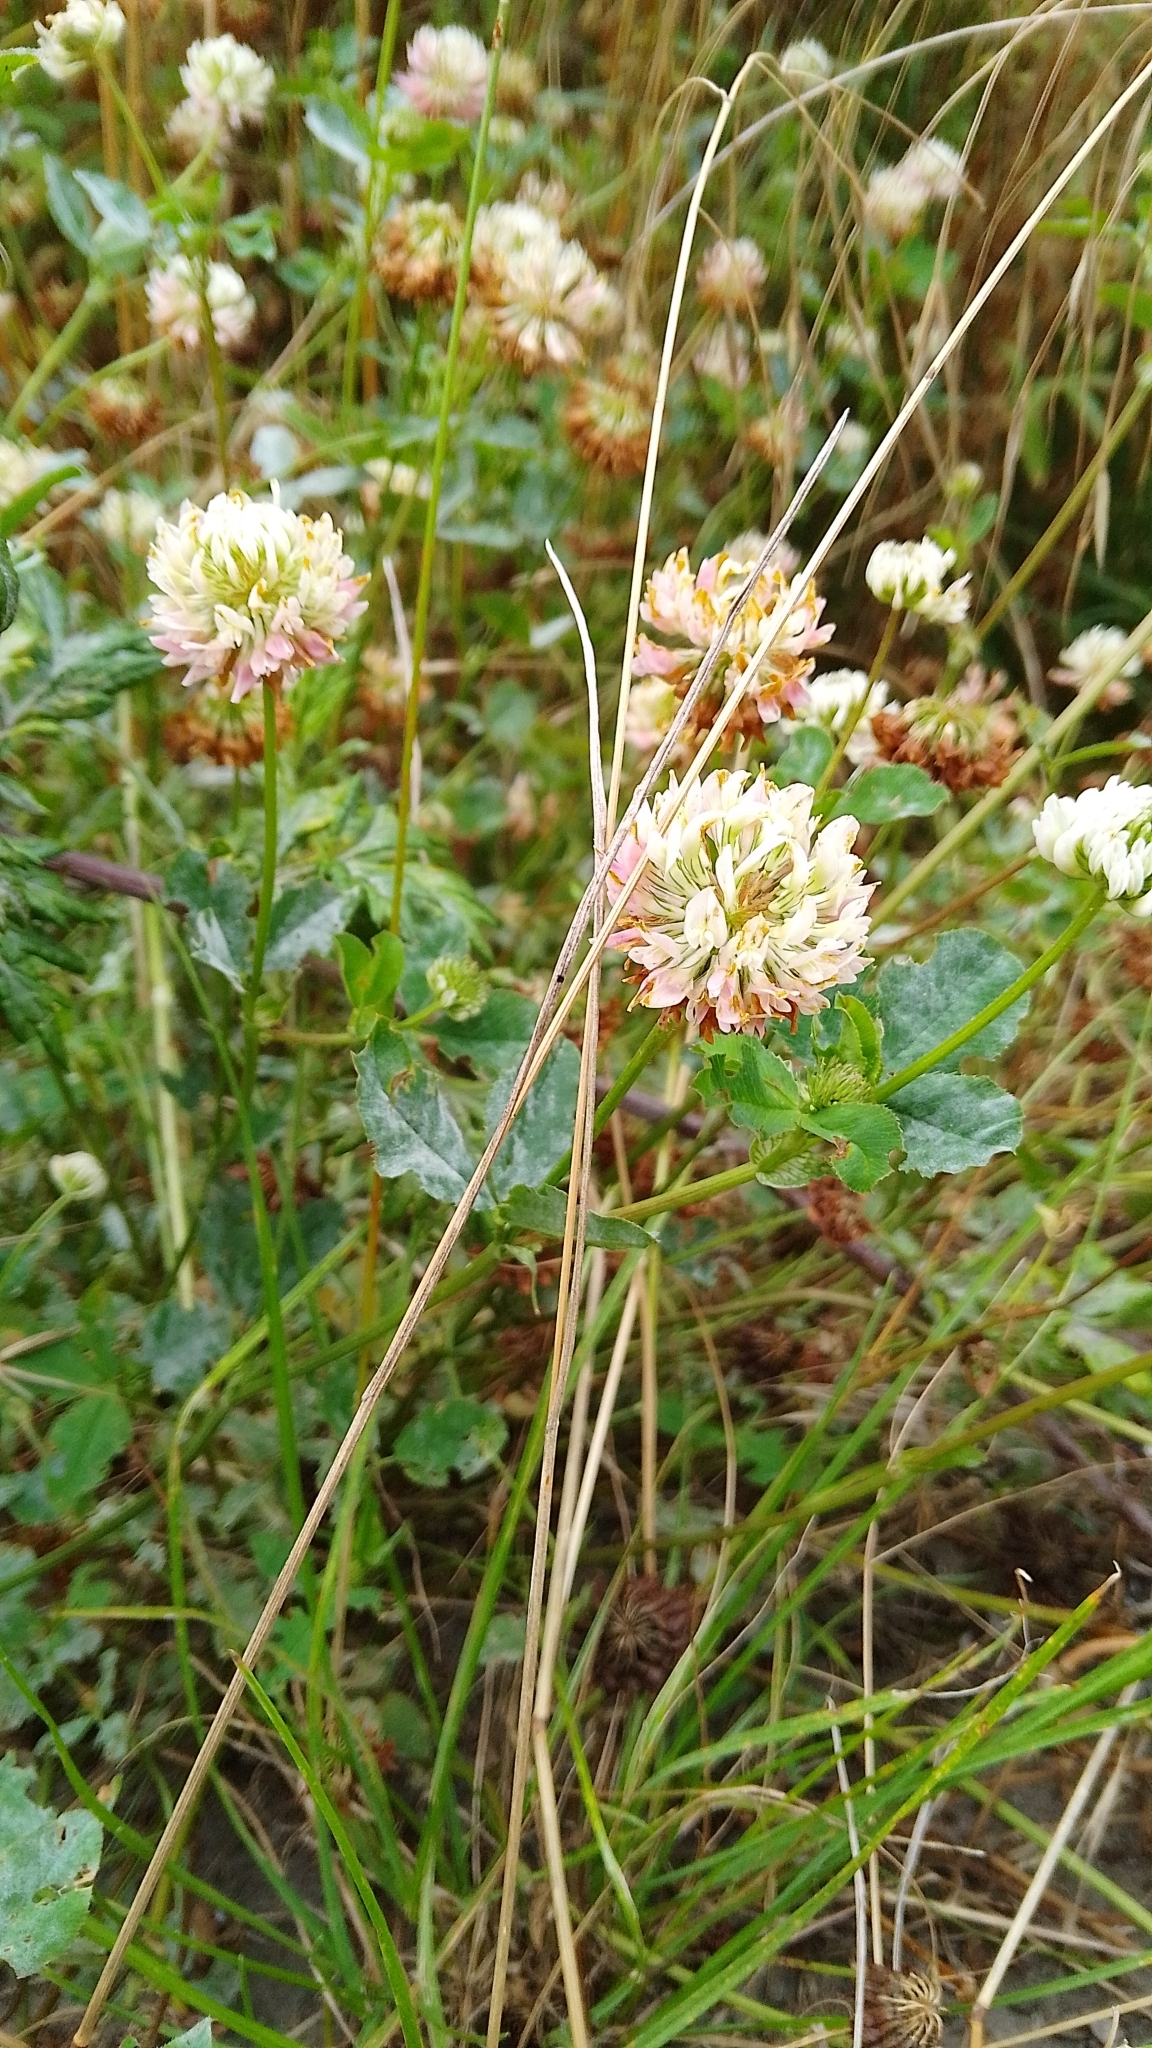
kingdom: Plantae
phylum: Tracheophyta
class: Magnoliopsida
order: Fabales
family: Fabaceae
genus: Trifolium
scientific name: Trifolium hybridum
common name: Alsike clover
